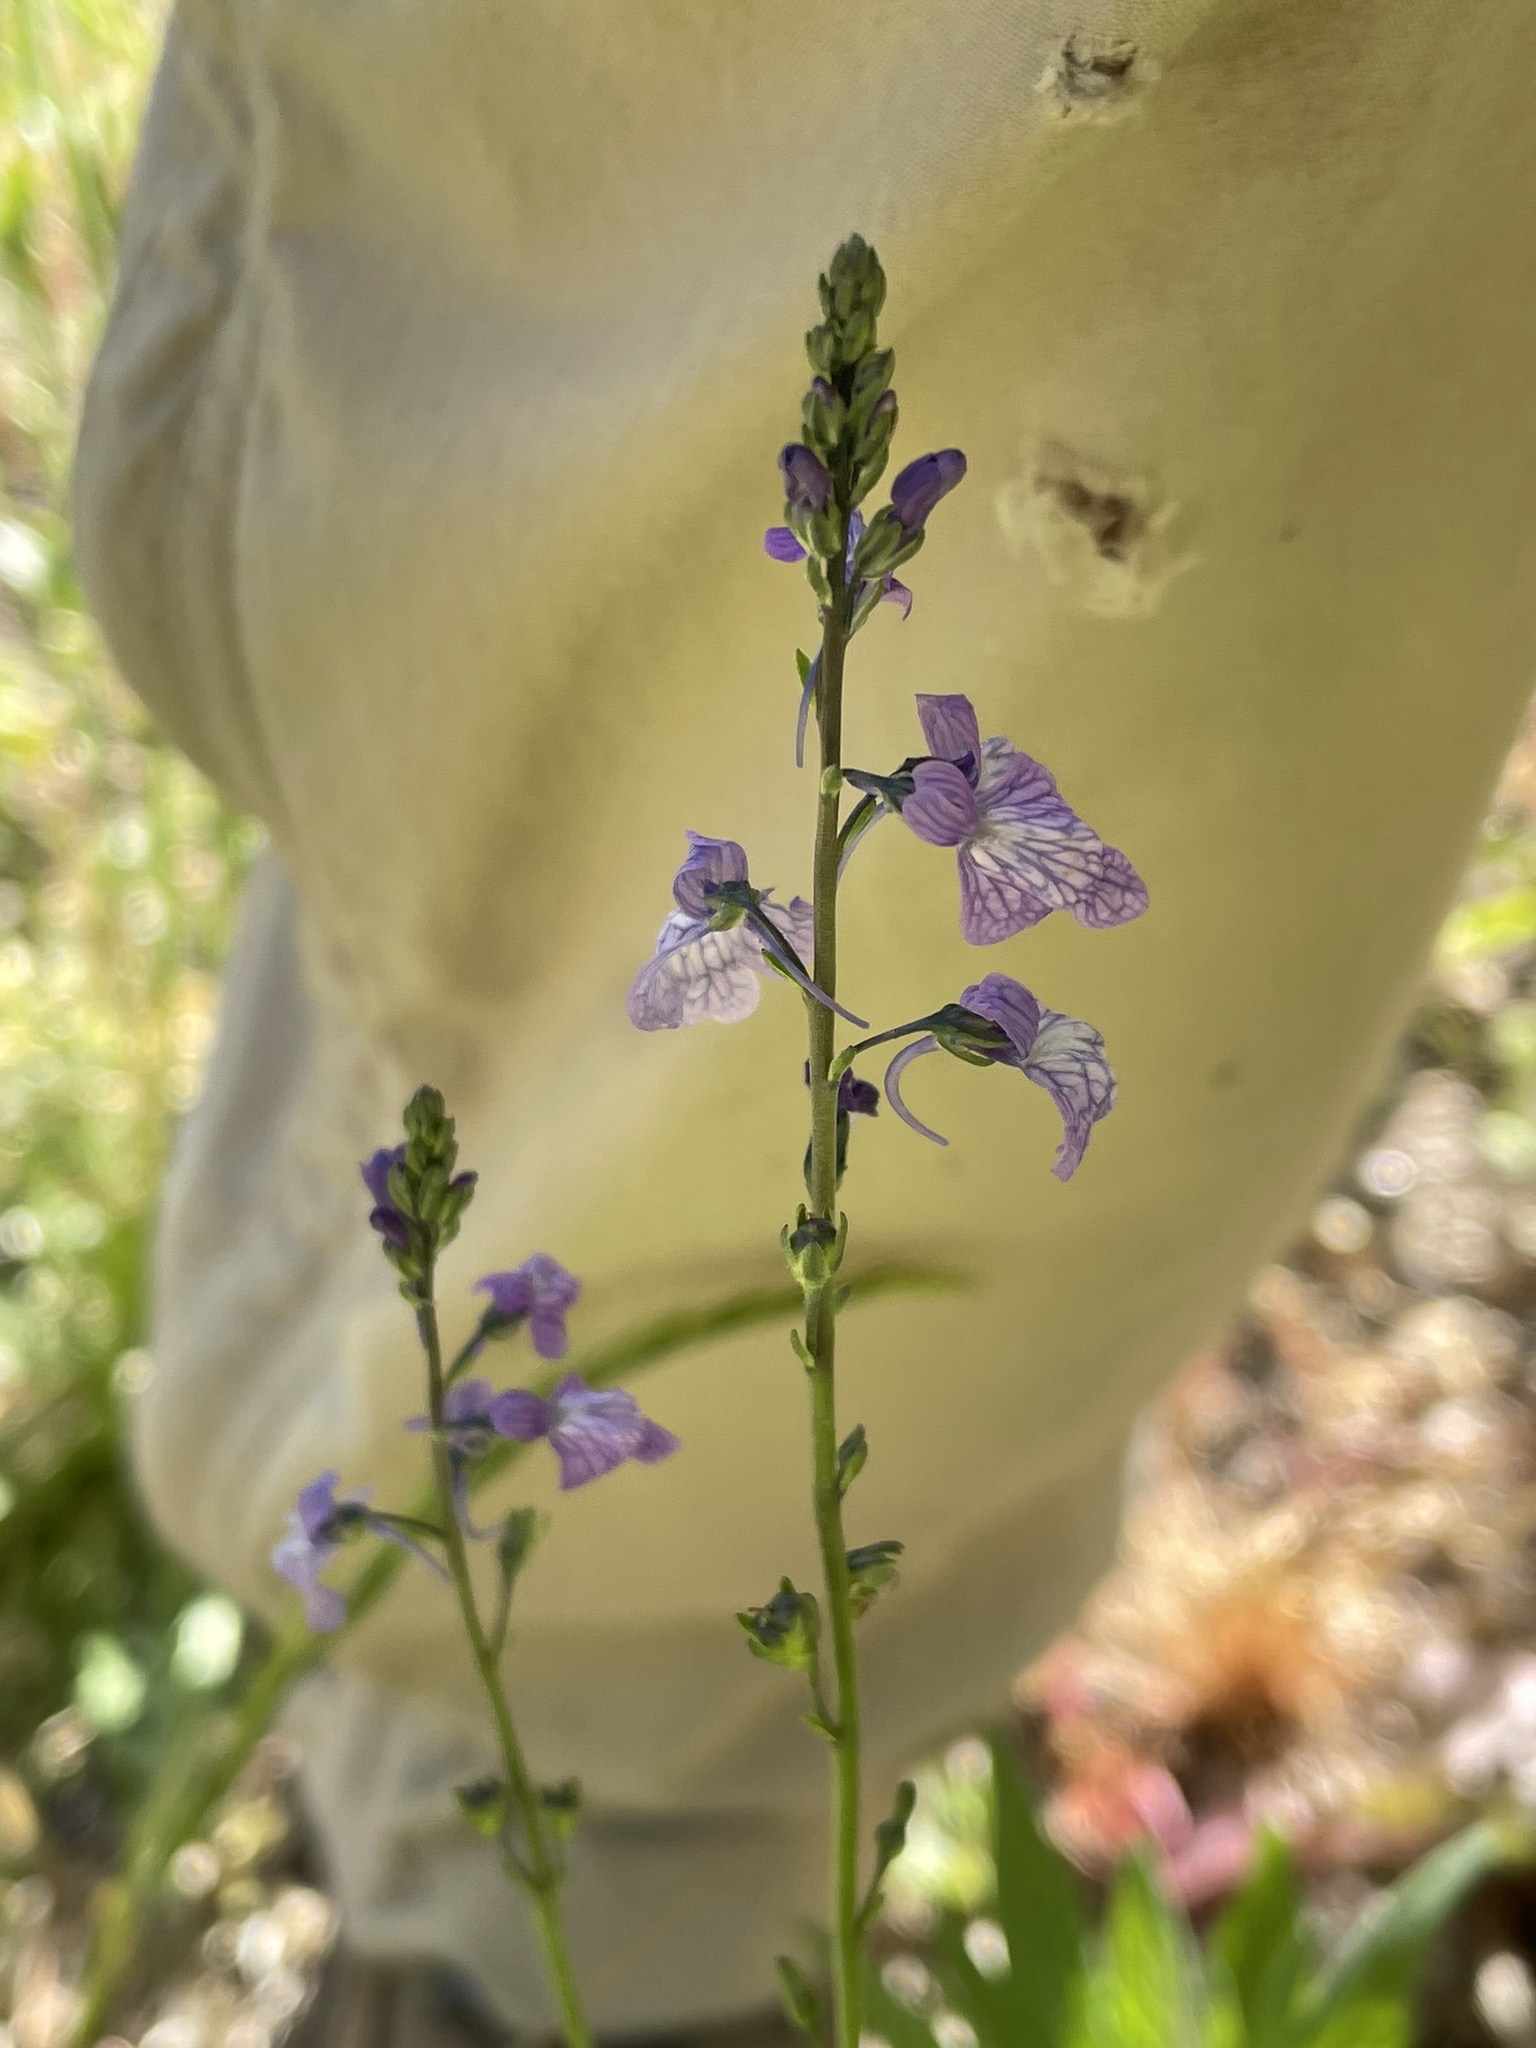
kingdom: Plantae
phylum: Tracheophyta
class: Magnoliopsida
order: Lamiales
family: Plantaginaceae
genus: Nuttallanthus
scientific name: Nuttallanthus texanus
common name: Texas toadflax
